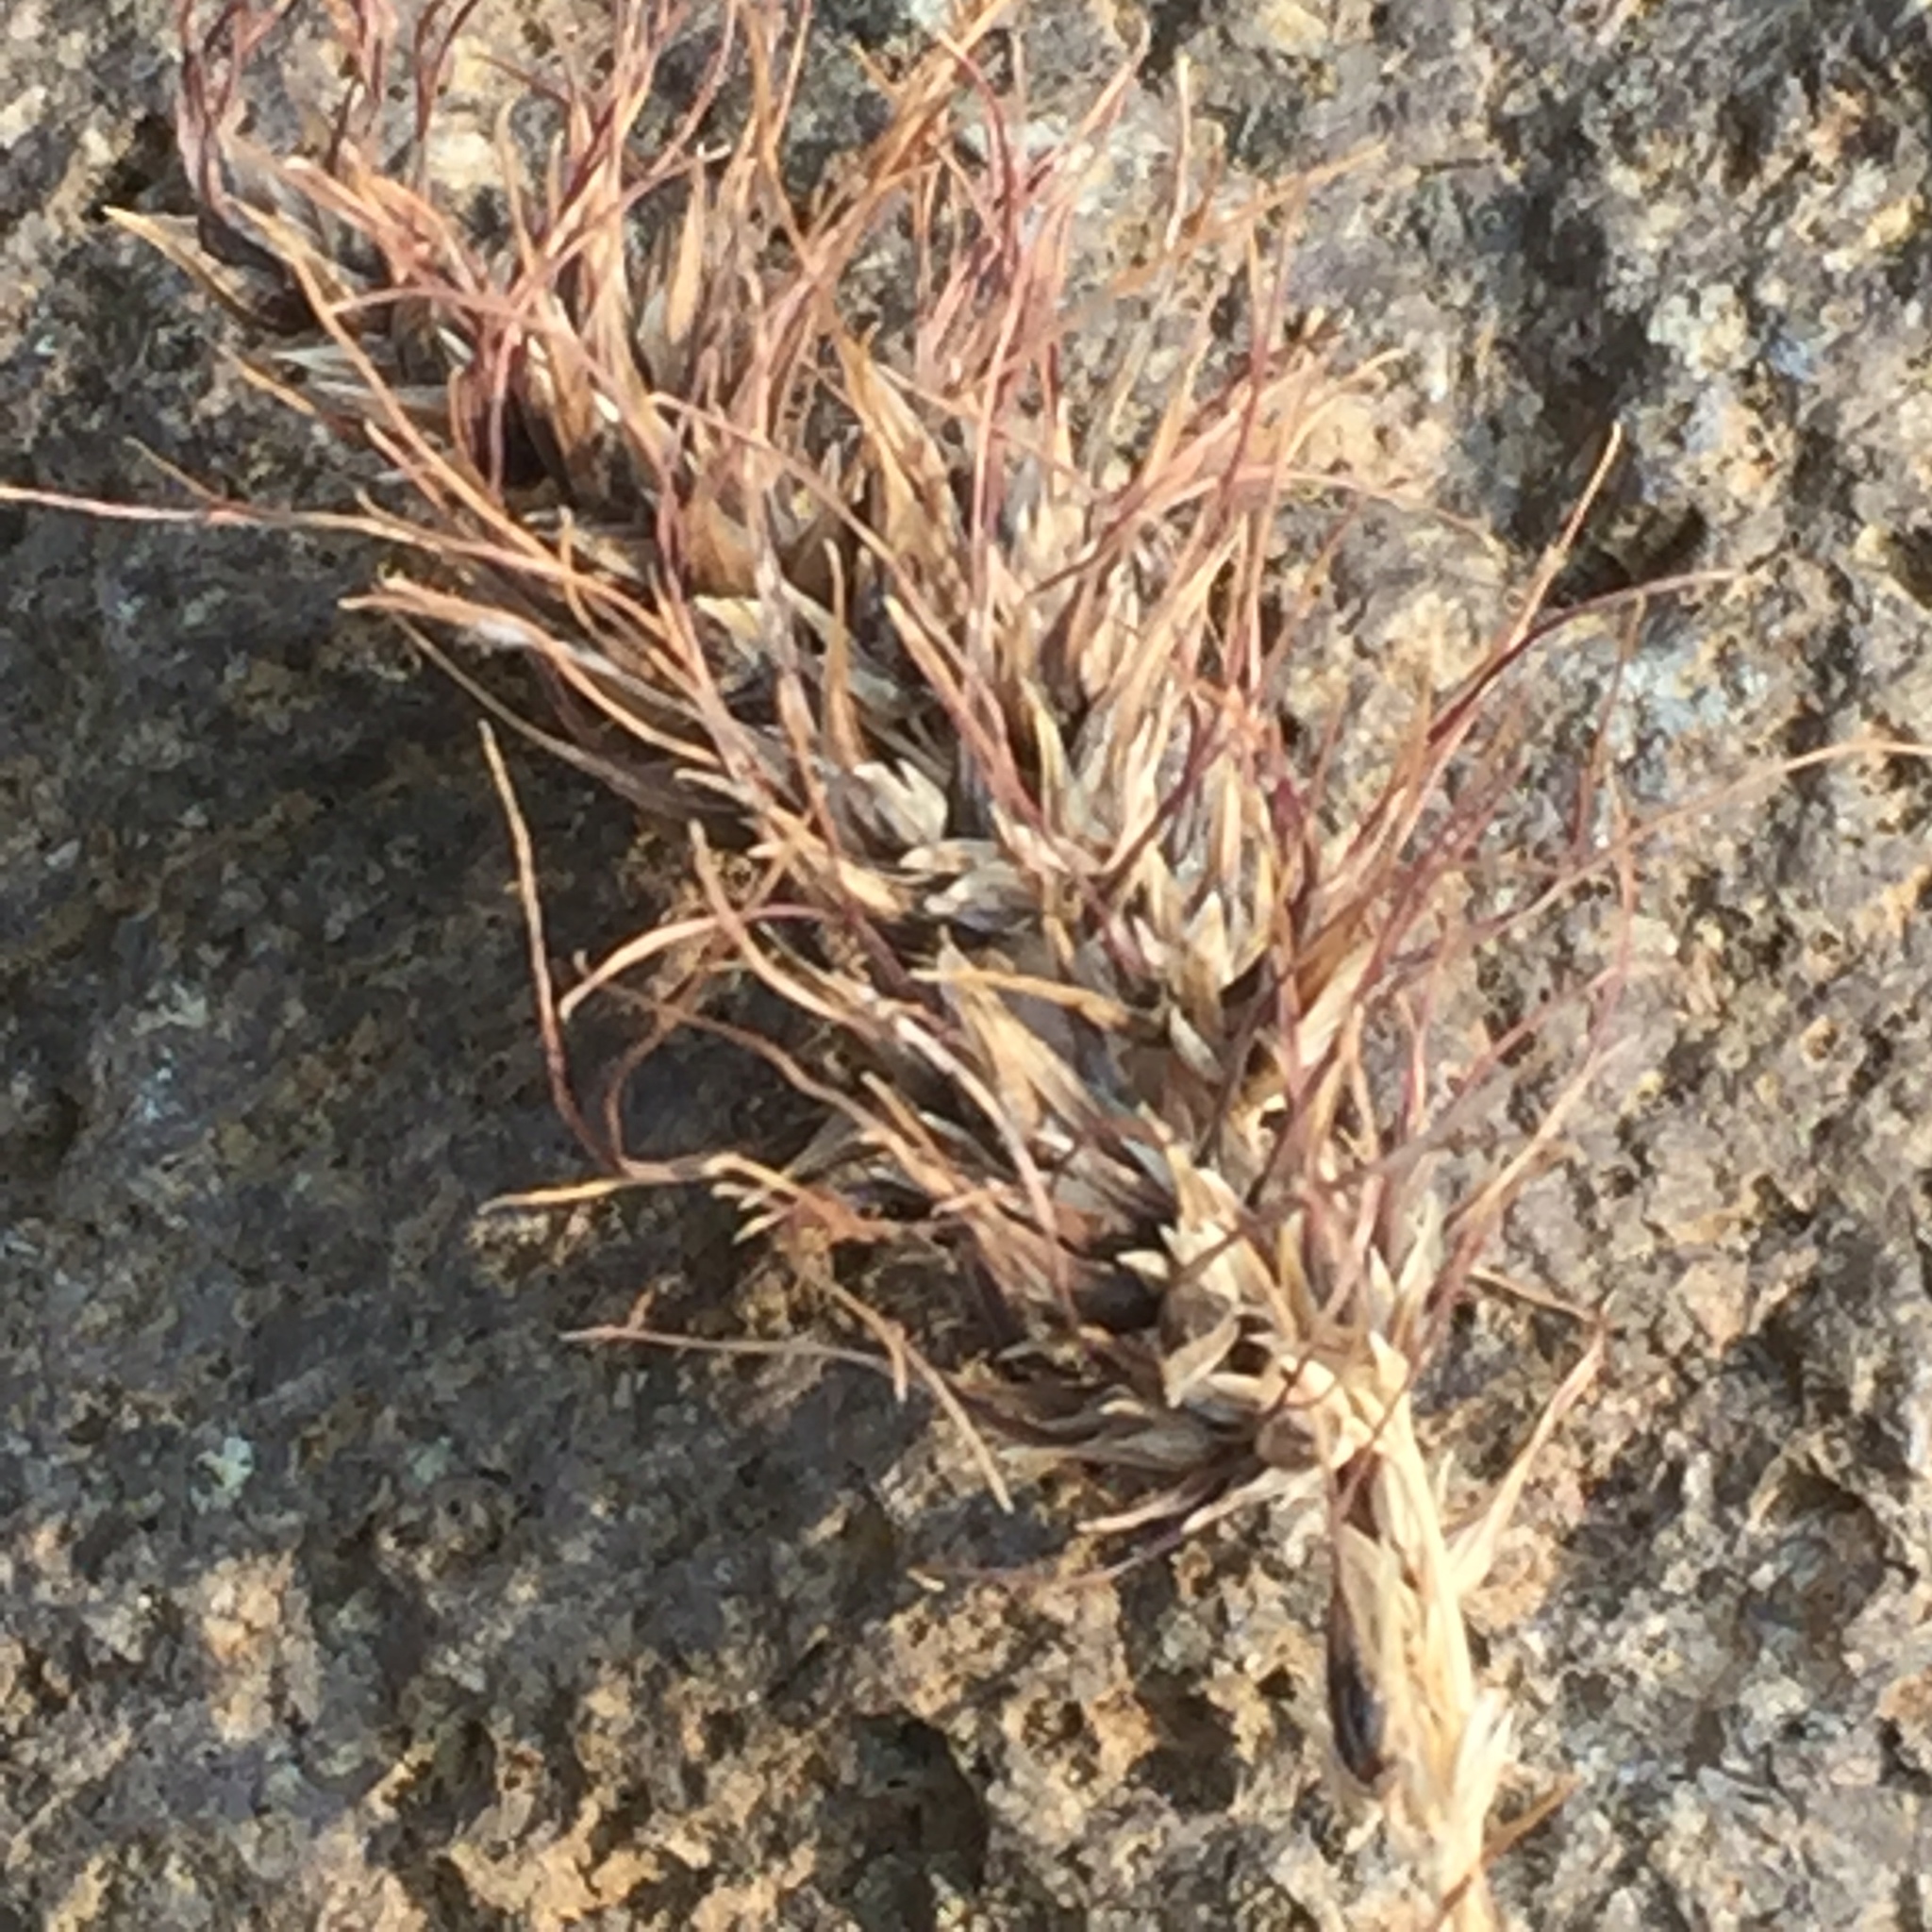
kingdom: Plantae
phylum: Tracheophyta
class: Liliopsida
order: Poales
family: Poaceae
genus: Poa
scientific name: Poa bulbosa
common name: Bulbous bluegrass
